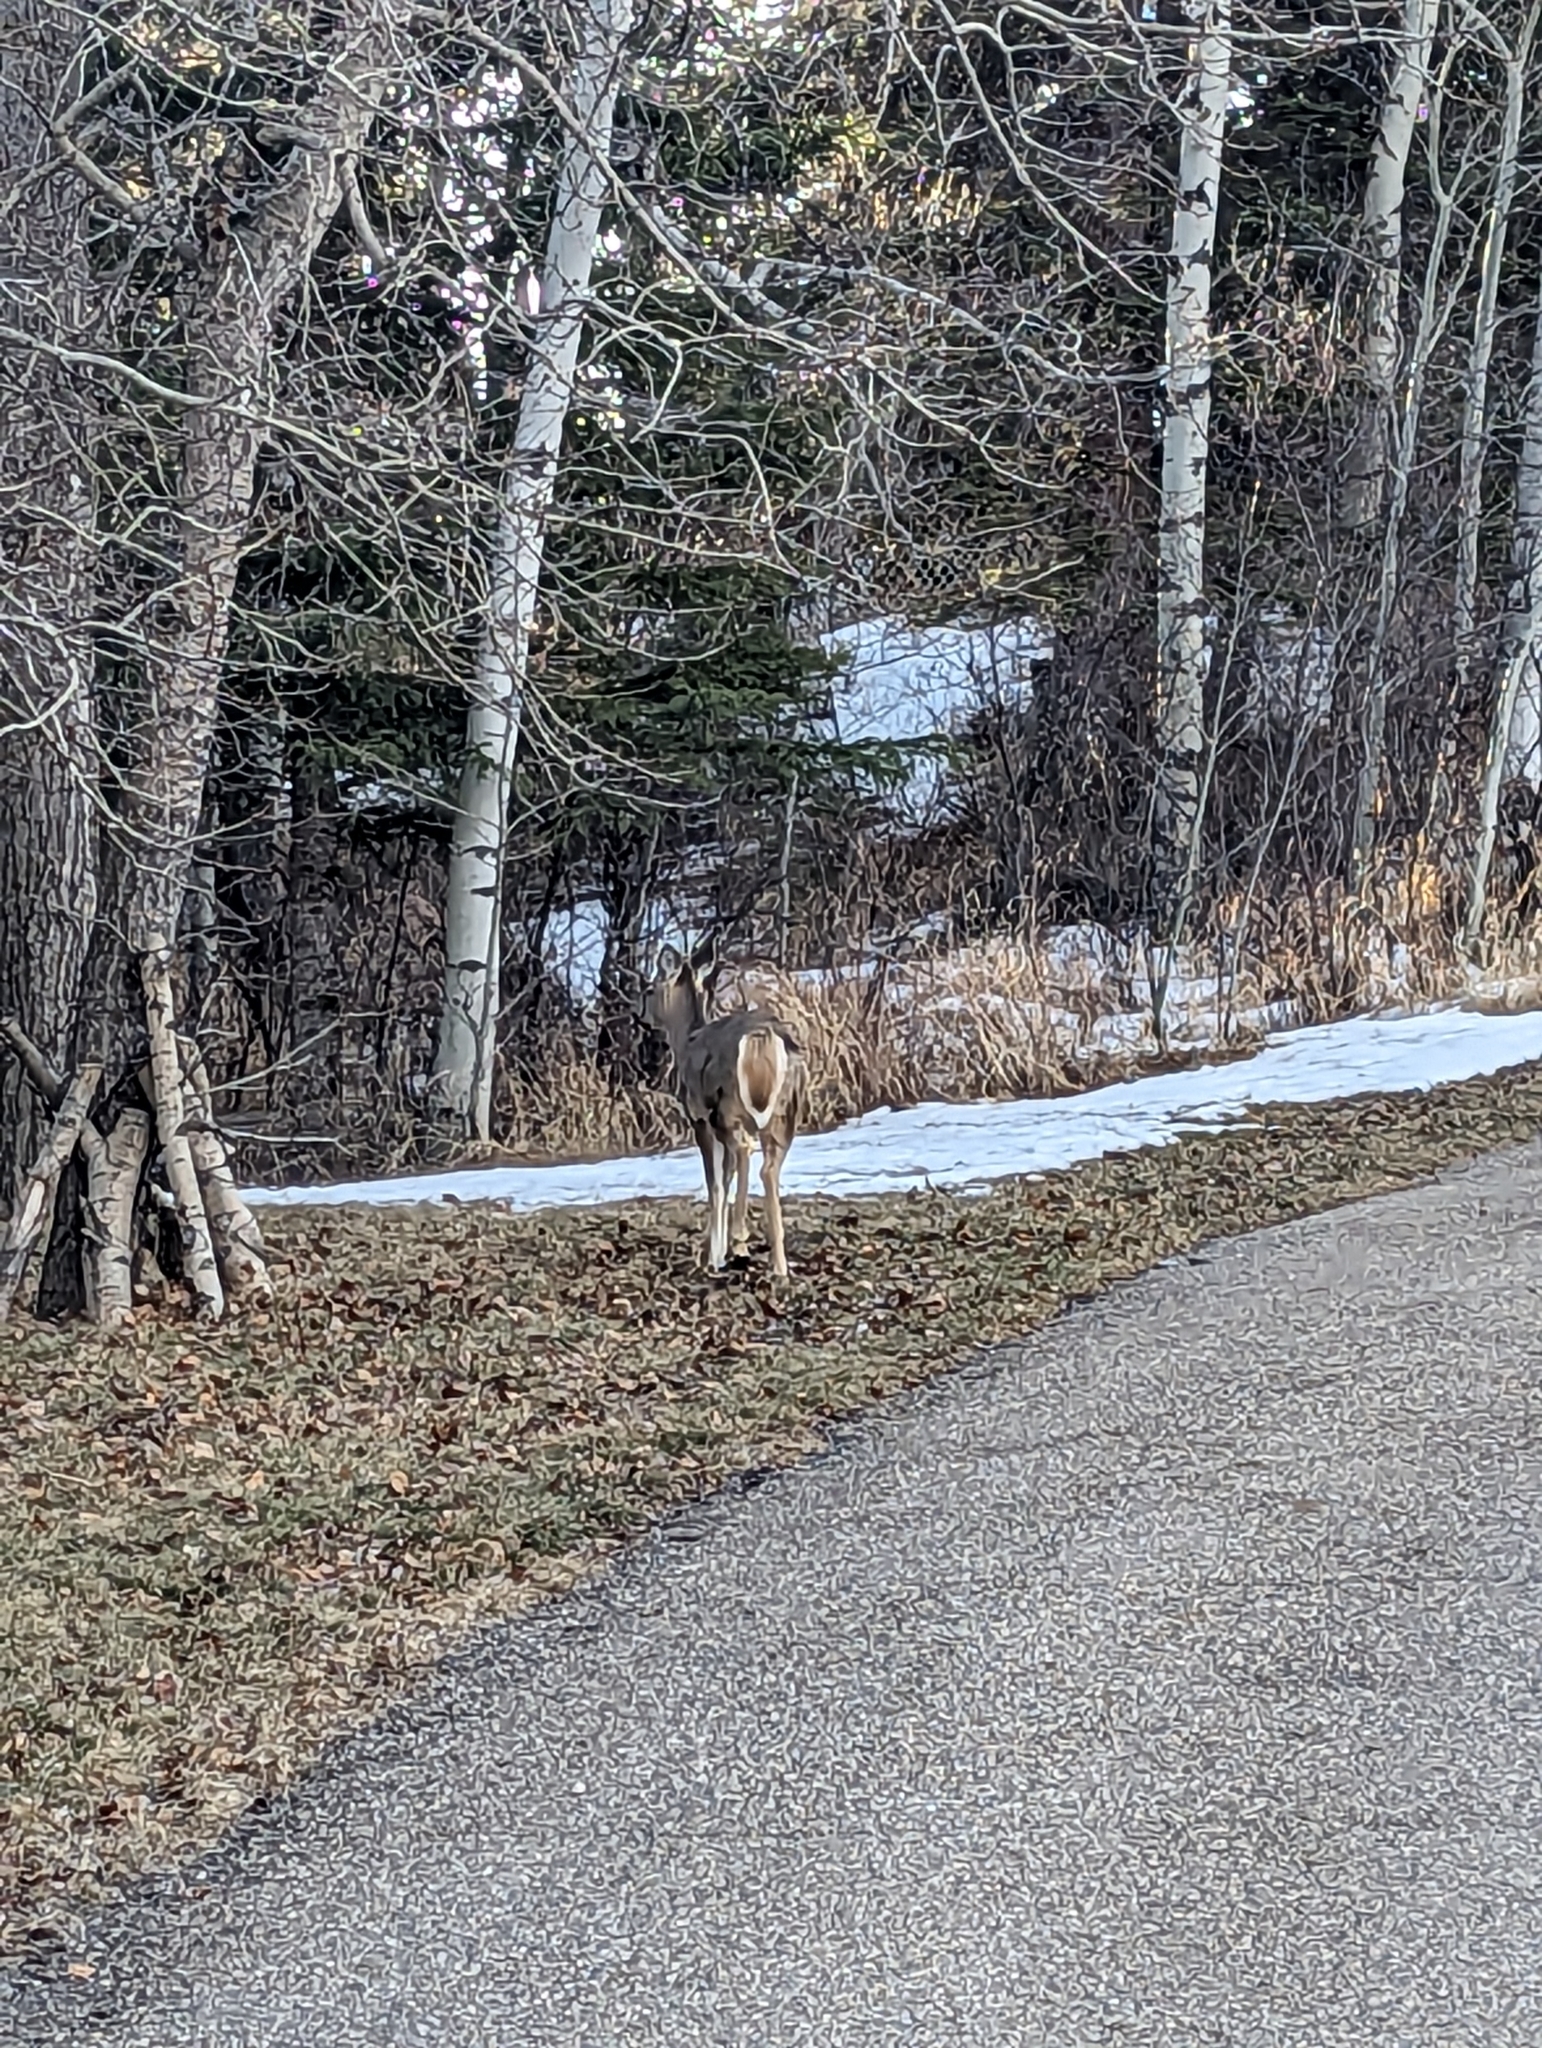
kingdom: Animalia
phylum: Chordata
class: Mammalia
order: Artiodactyla
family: Cervidae
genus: Odocoileus
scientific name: Odocoileus virginianus
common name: White-tailed deer
